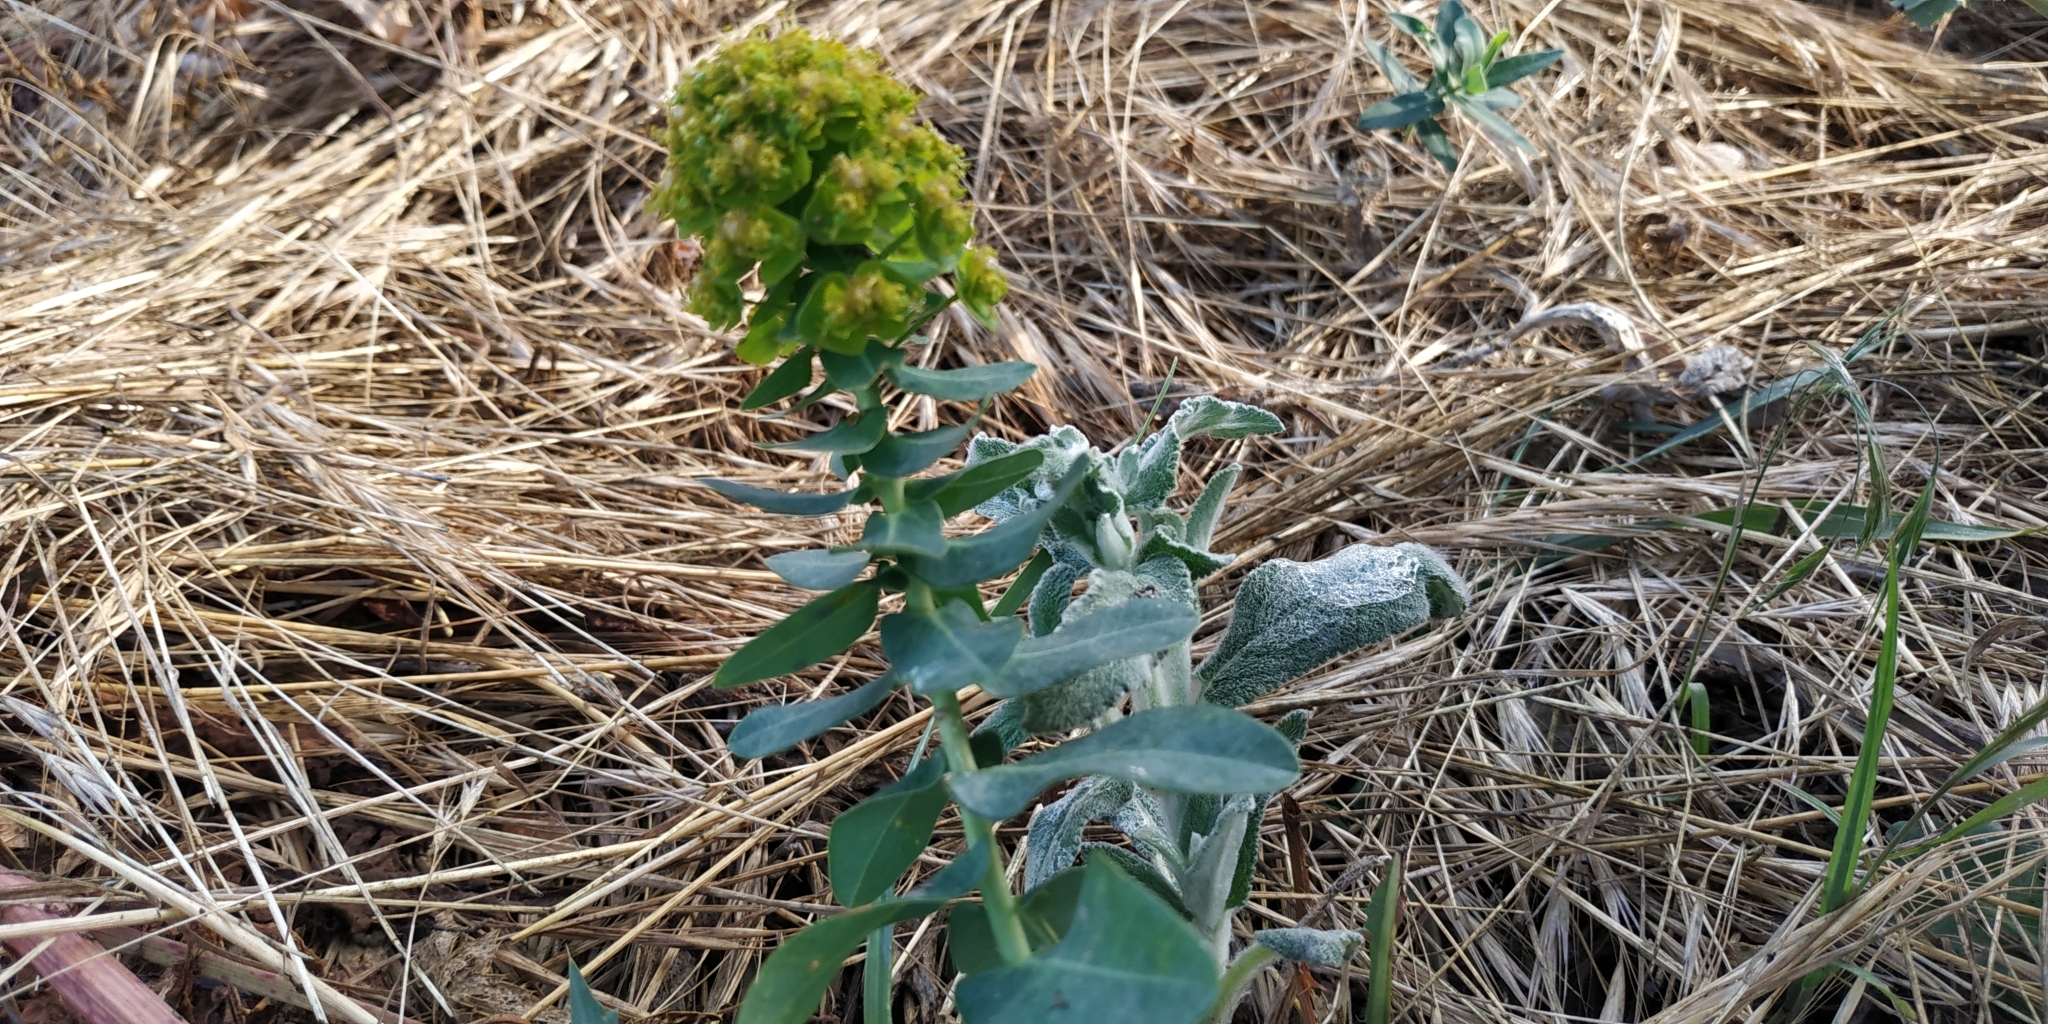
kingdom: Plantae
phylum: Tracheophyta
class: Magnoliopsida
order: Malpighiales
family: Euphorbiaceae
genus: Euphorbia
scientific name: Euphorbia agraria
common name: Urban spurge
